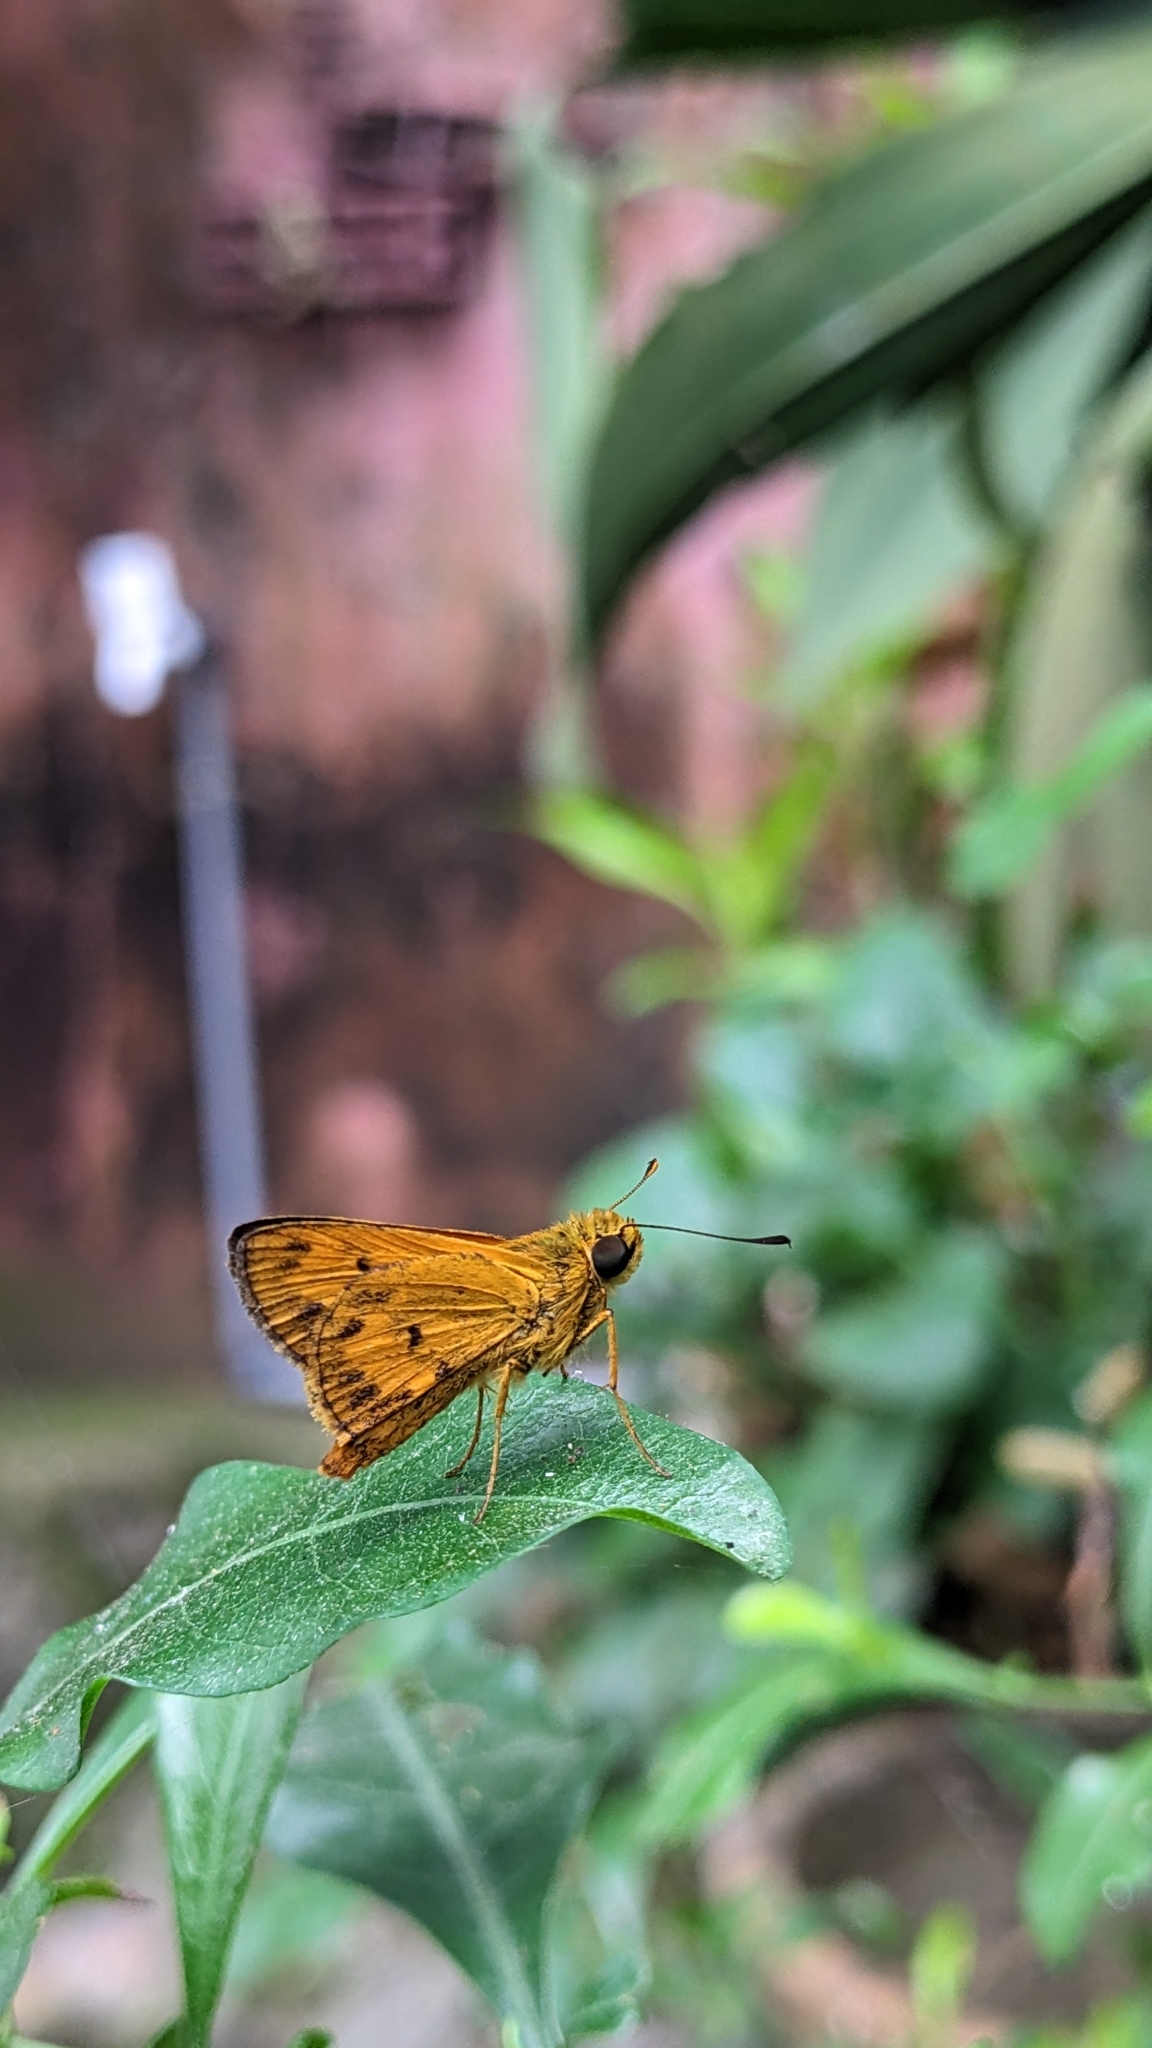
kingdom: Animalia
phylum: Arthropoda
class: Insecta
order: Lepidoptera
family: Hesperiidae
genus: Oriens
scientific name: Oriens goloides
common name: Smaller dartlet
